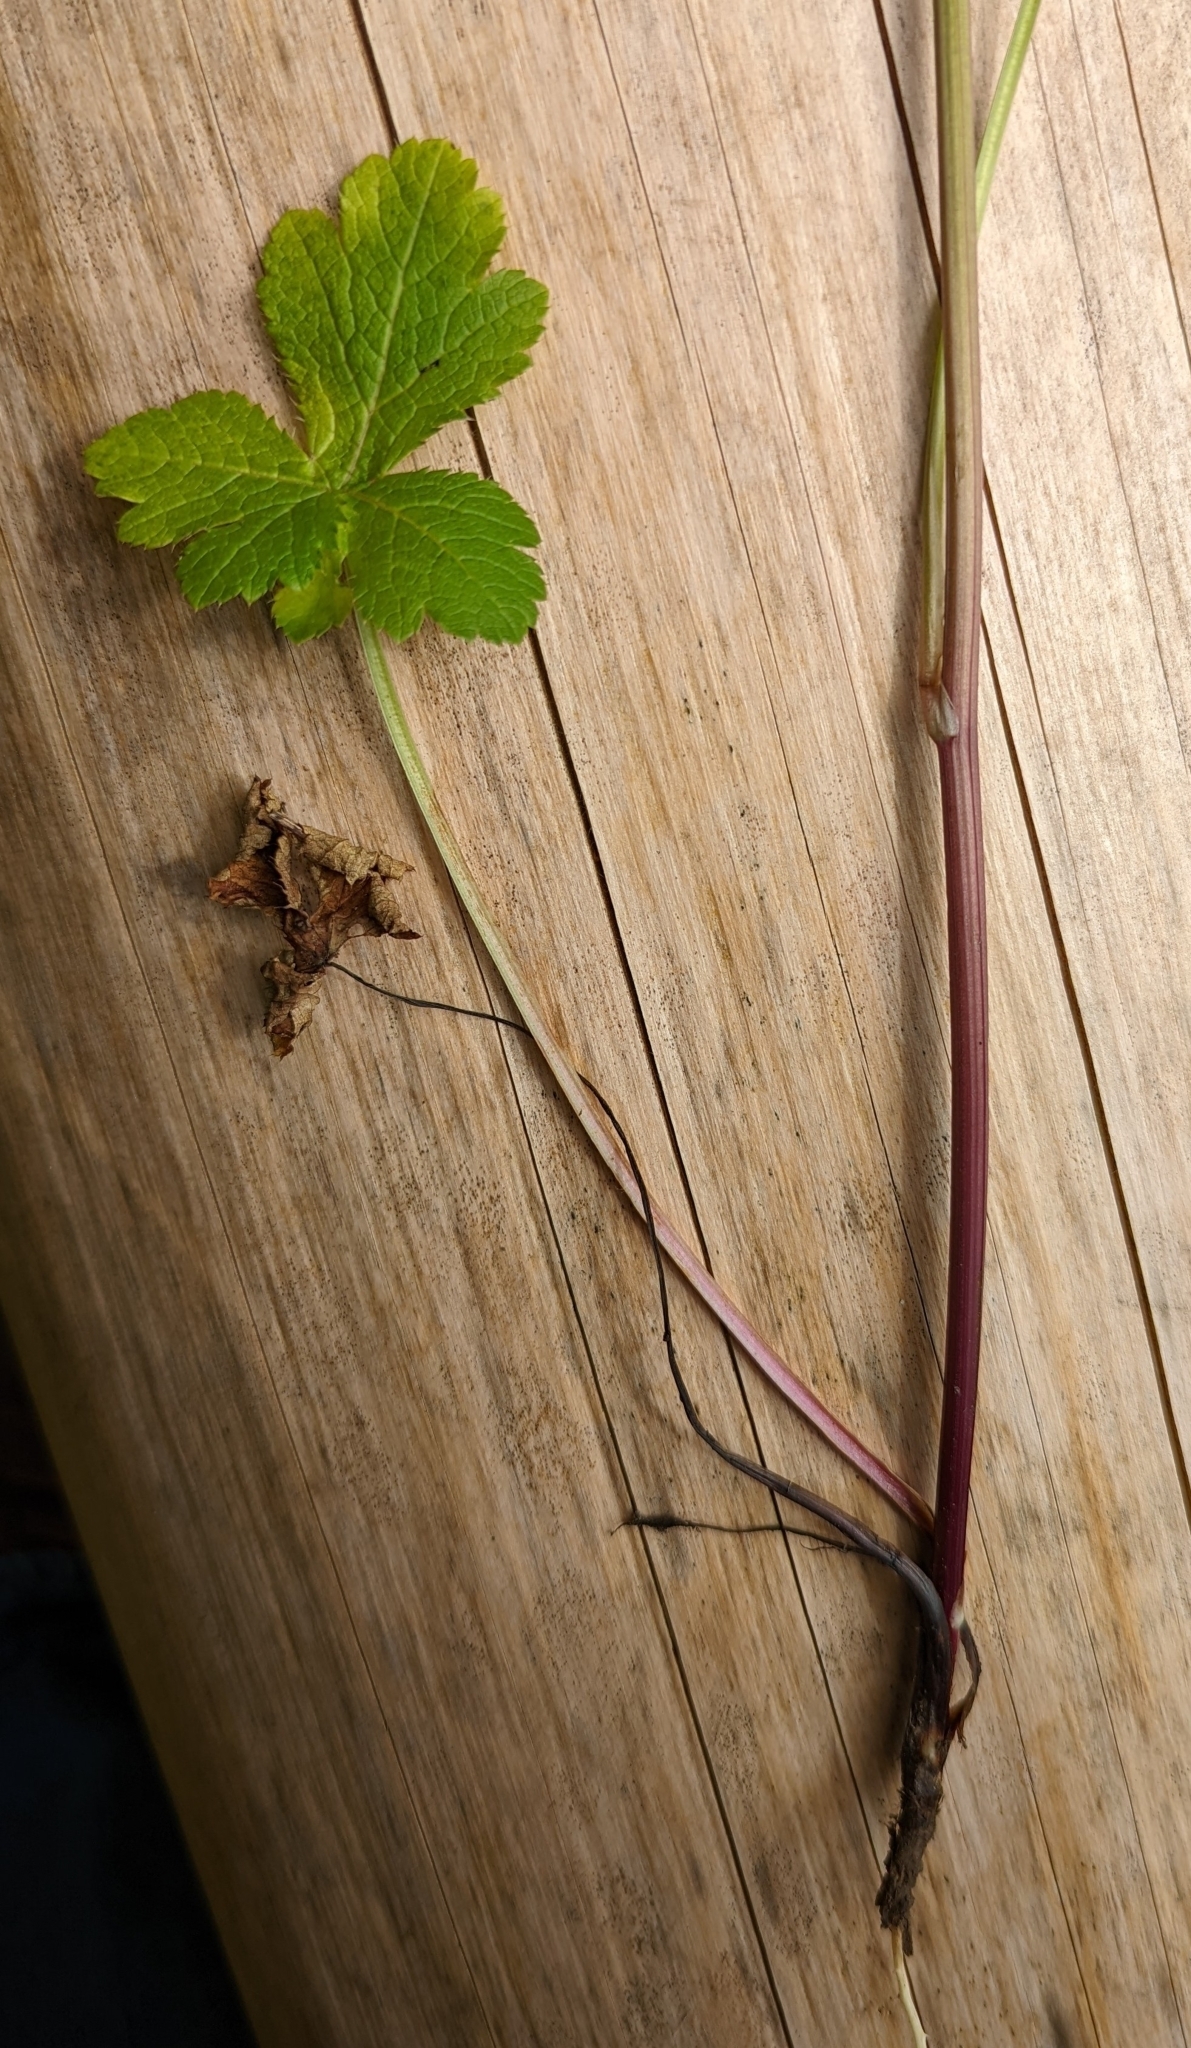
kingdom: Plantae
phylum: Tracheophyta
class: Magnoliopsida
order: Apiales
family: Apiaceae
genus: Sanicula
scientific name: Sanicula crassicaulis
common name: Western snakeroot
